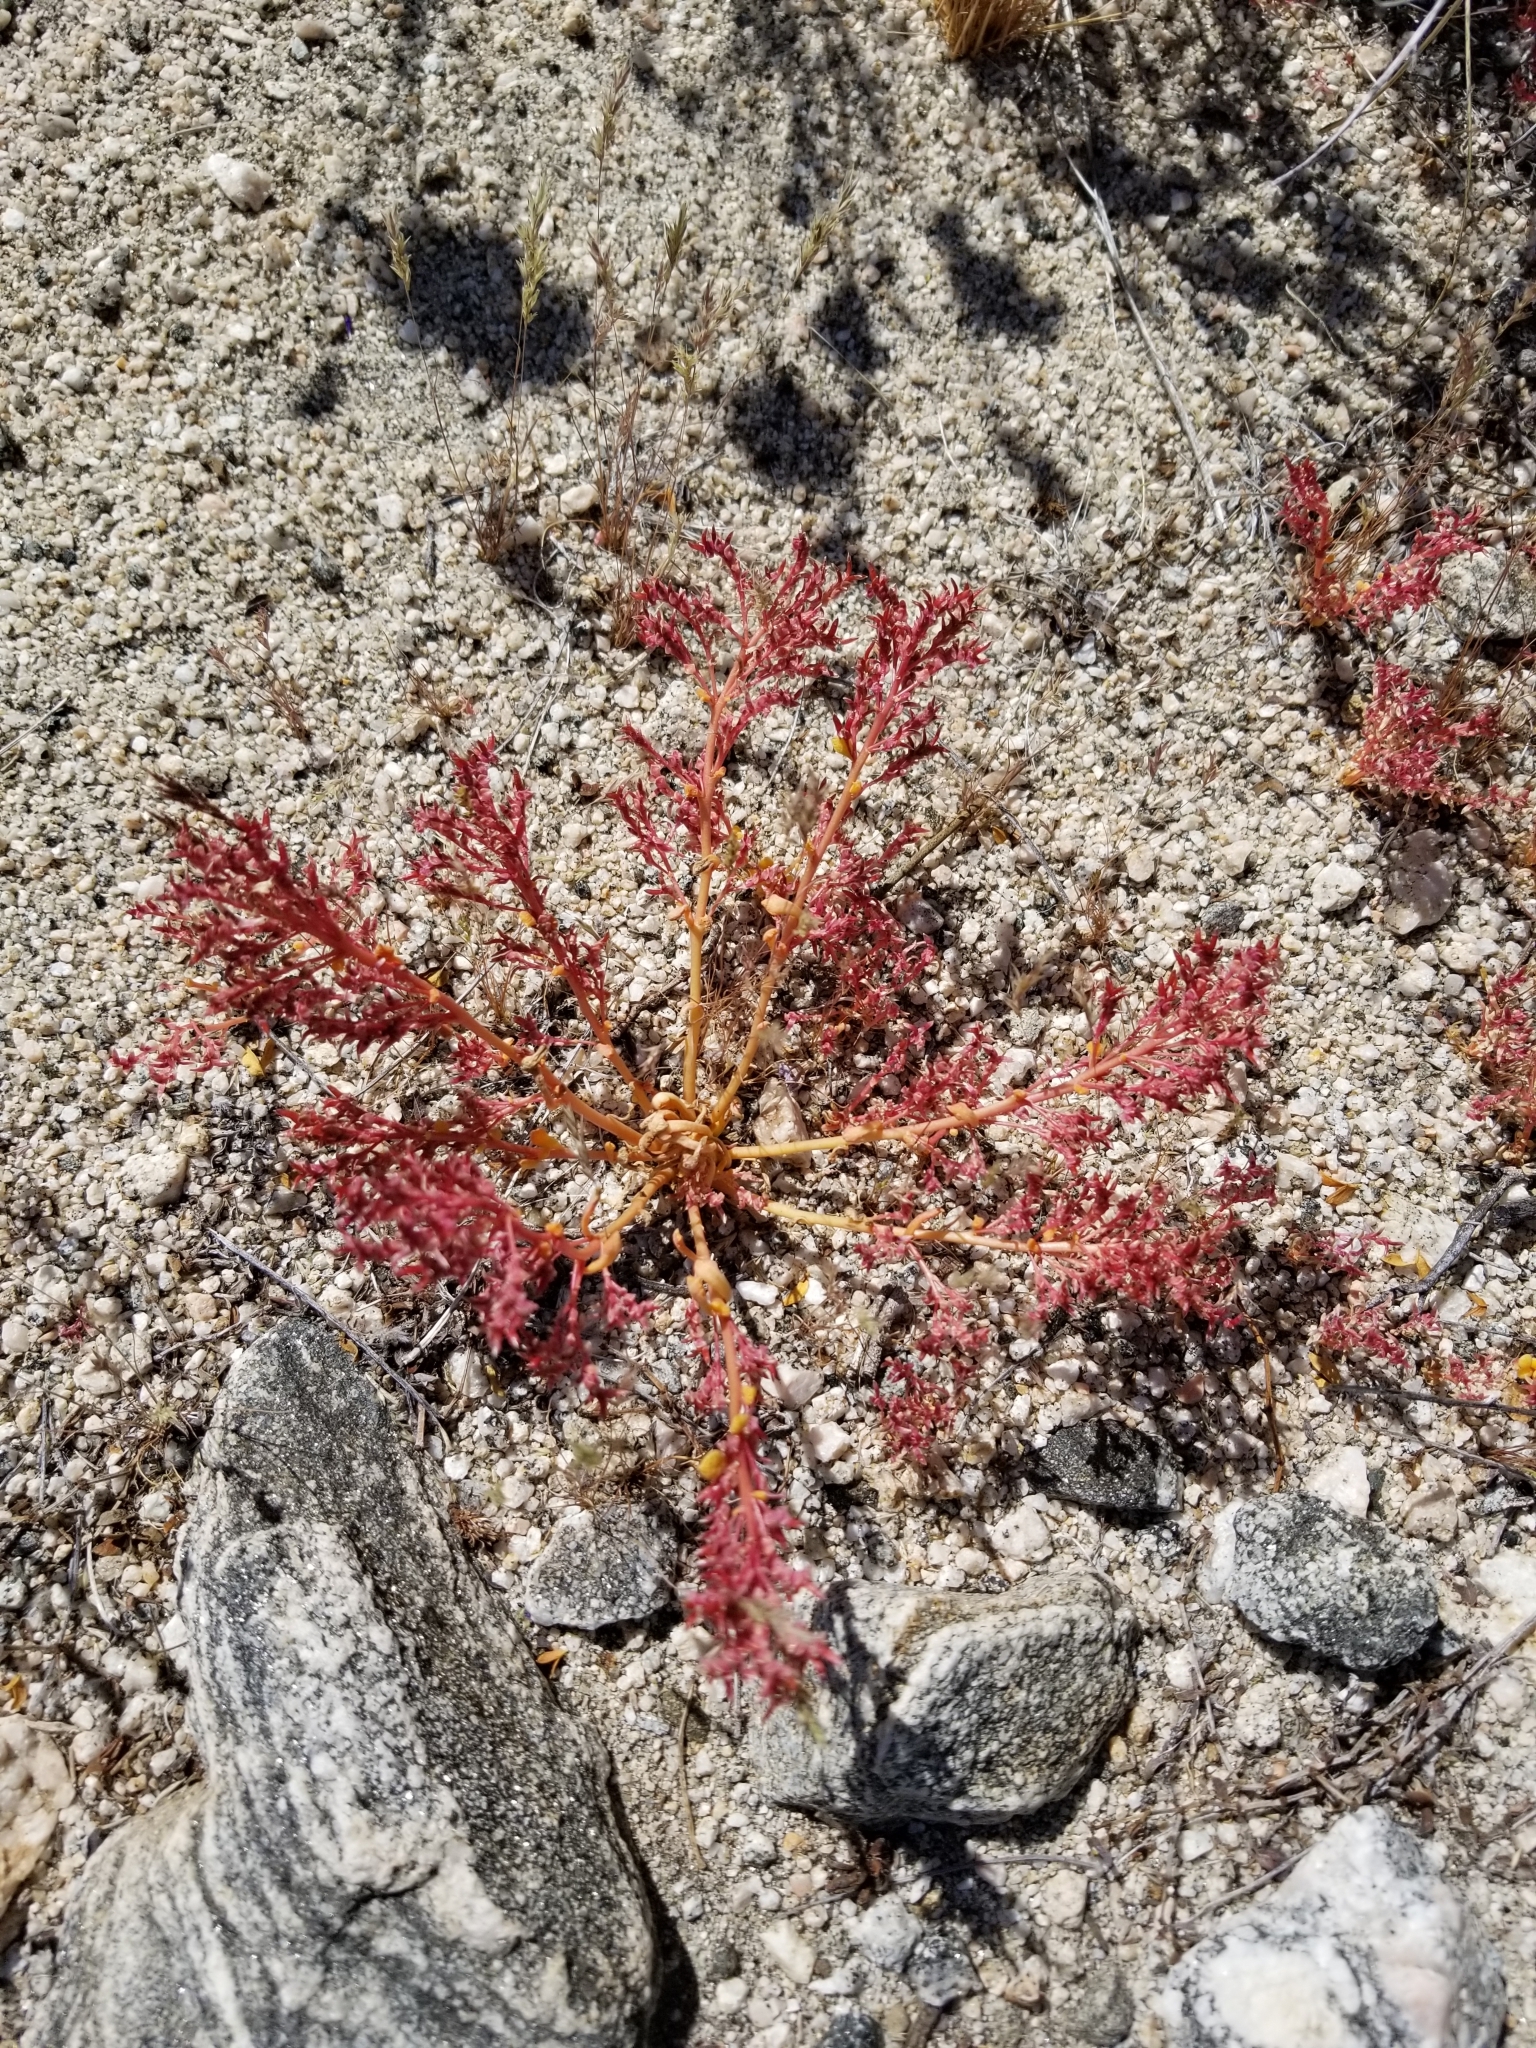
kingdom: Plantae
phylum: Tracheophyta
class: Magnoliopsida
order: Caryophyllales
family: Montiaceae
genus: Calyptridium
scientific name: Calyptridium monandrum
